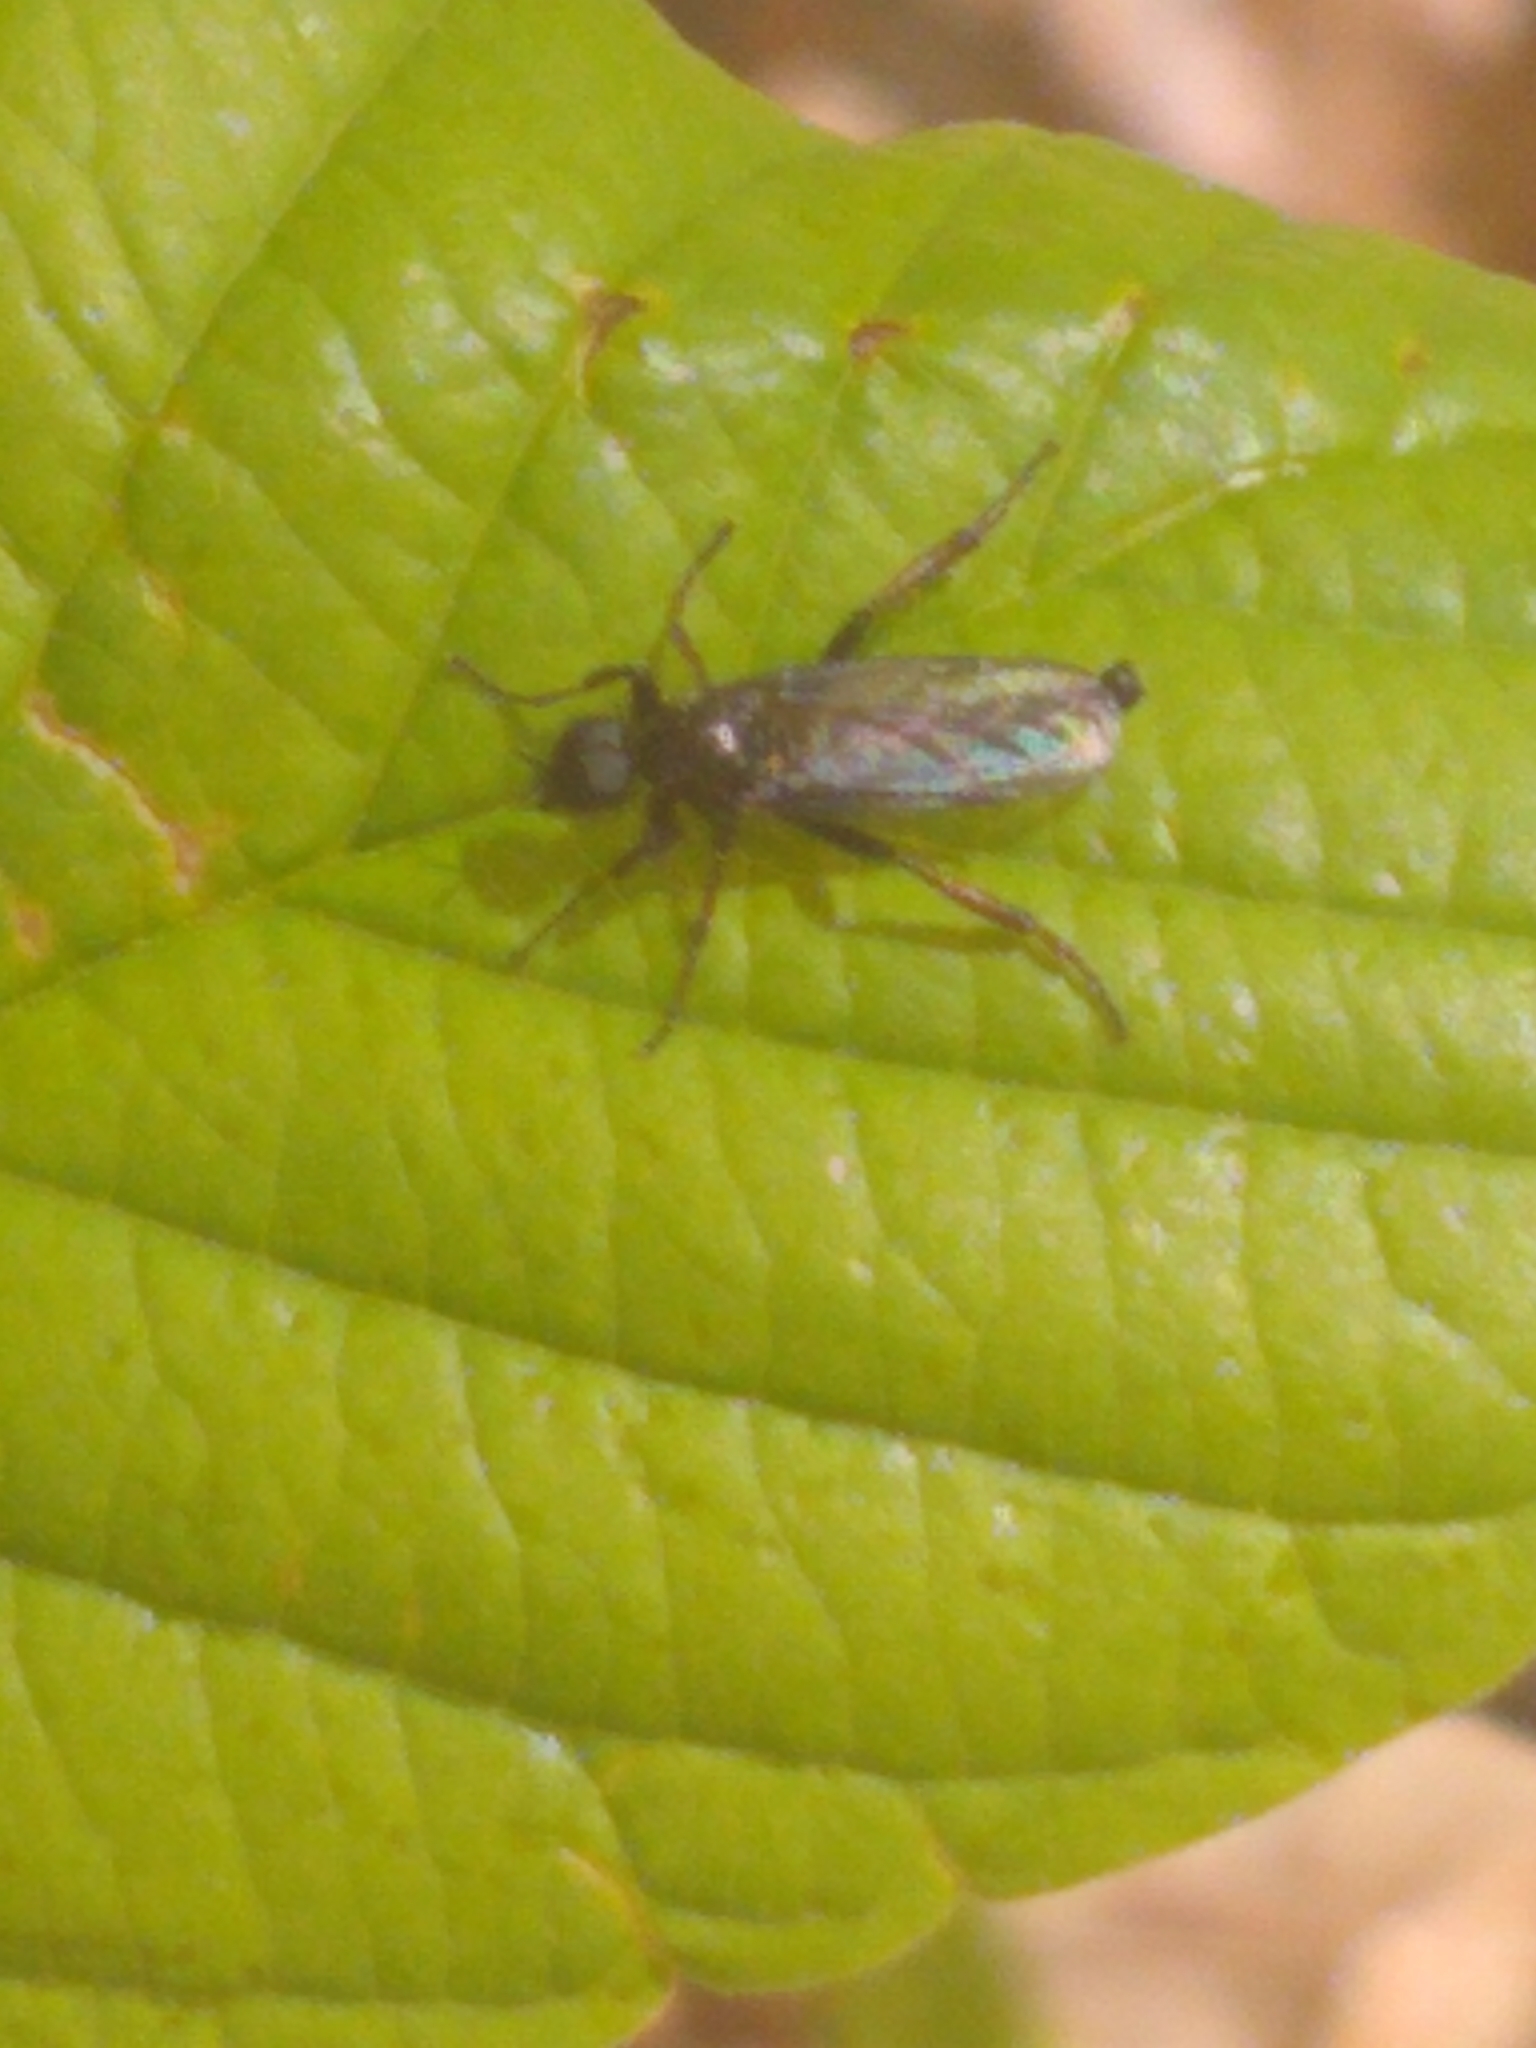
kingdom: Animalia
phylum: Arthropoda
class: Insecta
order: Diptera
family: Bibionidae
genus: Bibio
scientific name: Bibio
